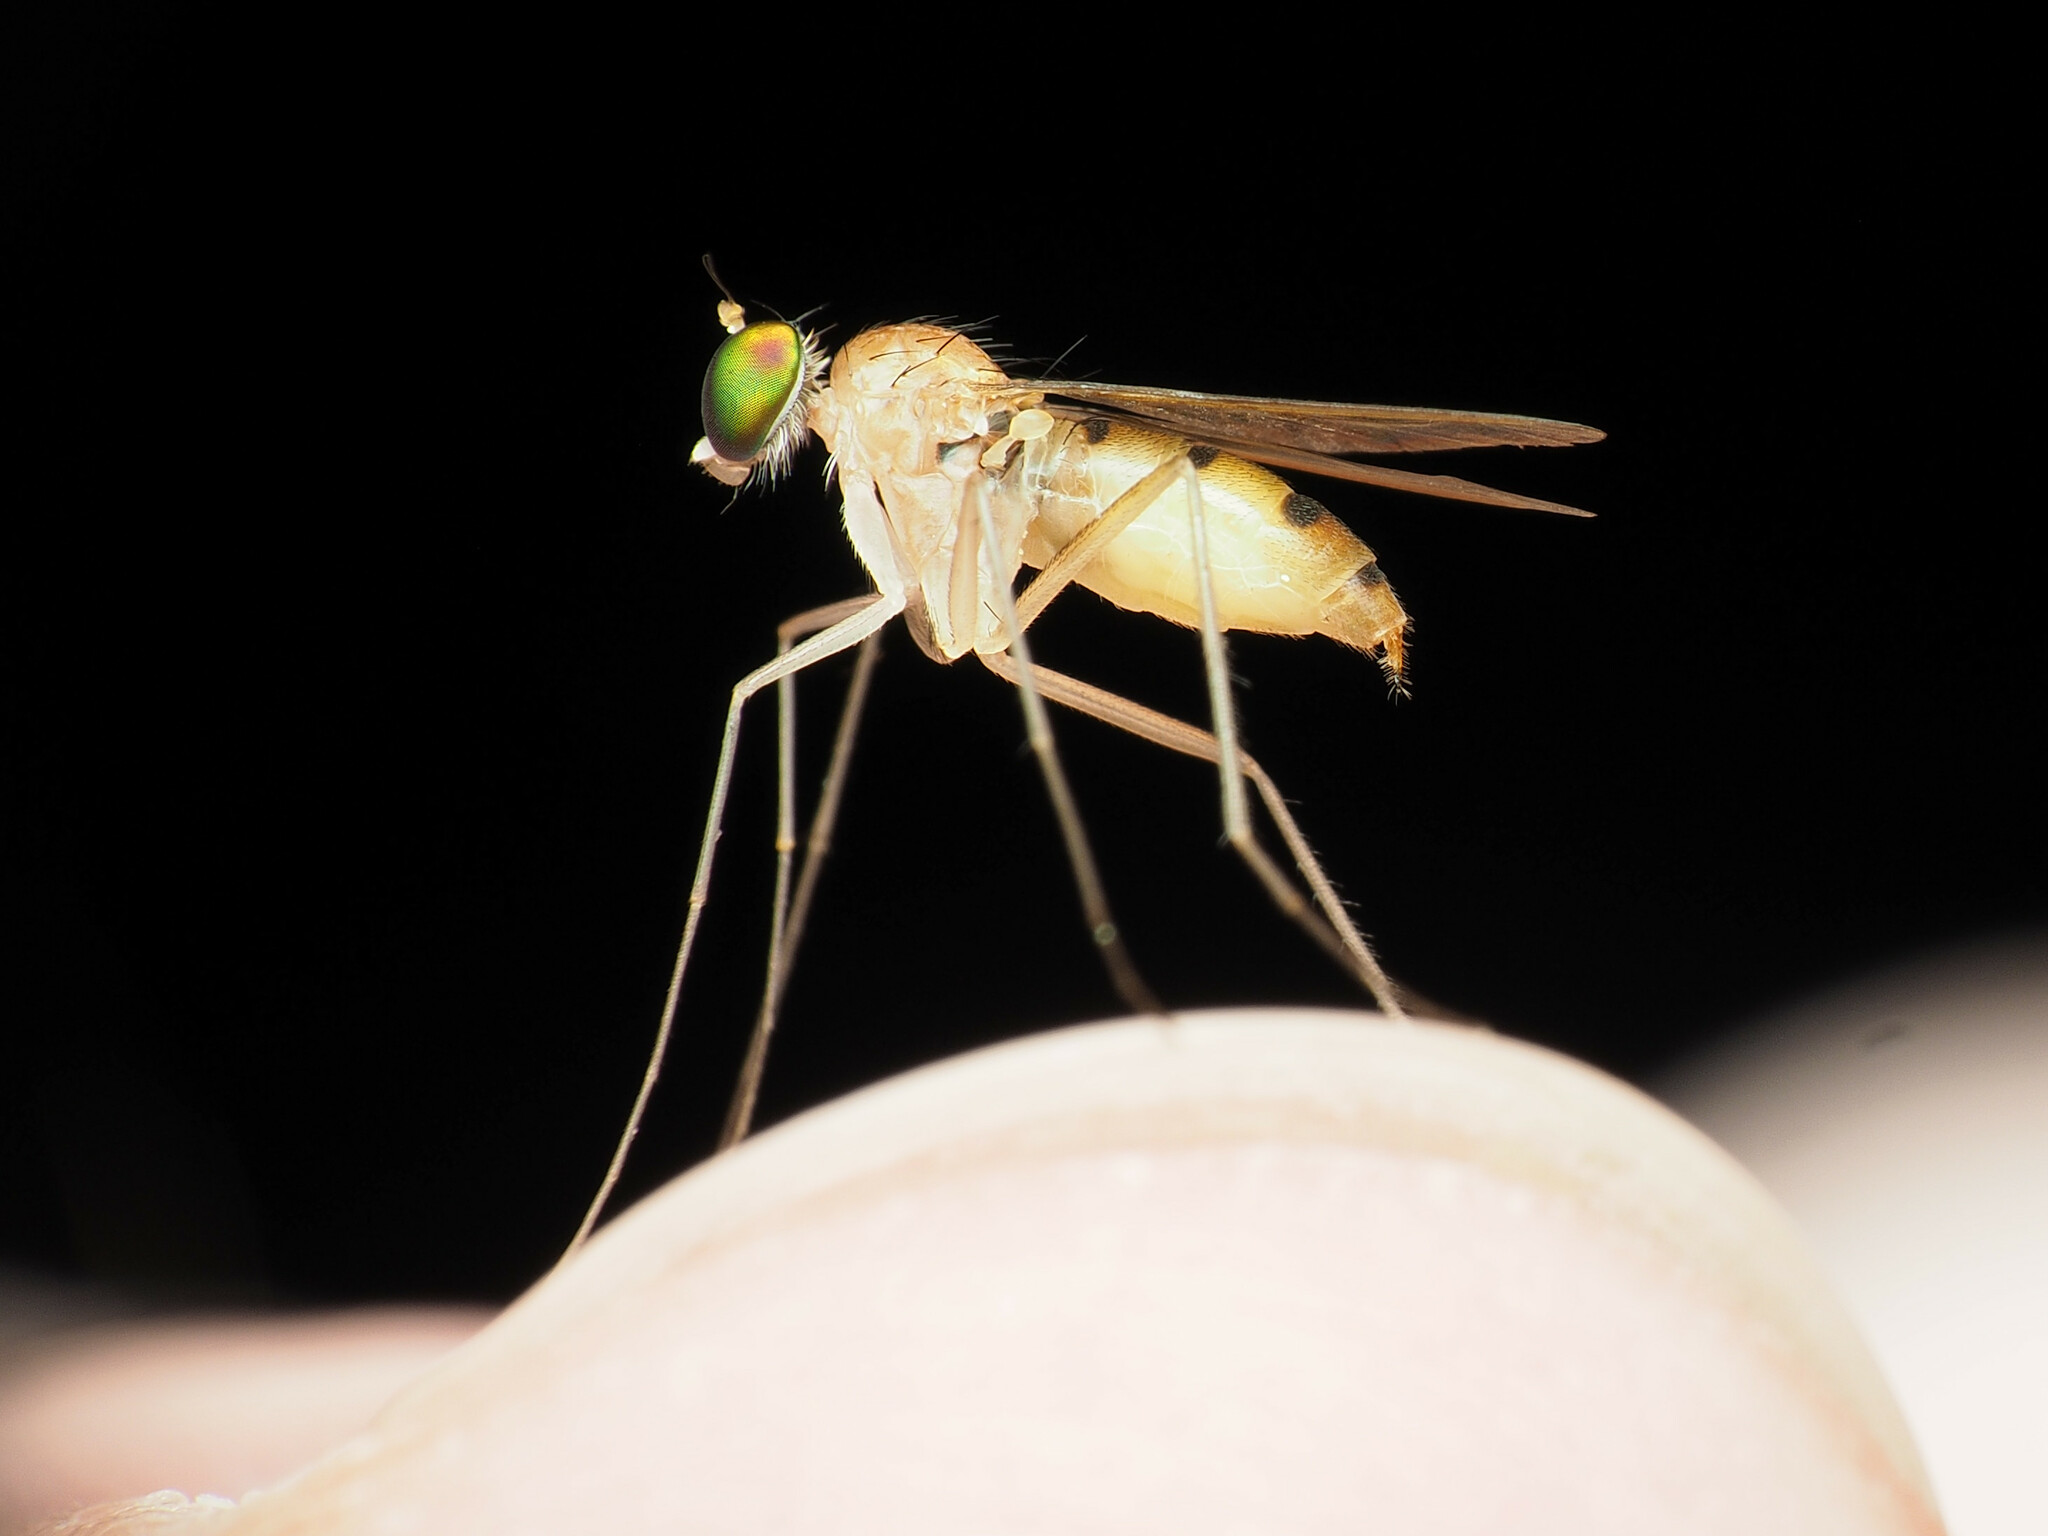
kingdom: Animalia
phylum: Arthropoda
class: Insecta
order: Diptera
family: Dolichopodidae
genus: Neurigona
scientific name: Neurigona disjuncta
